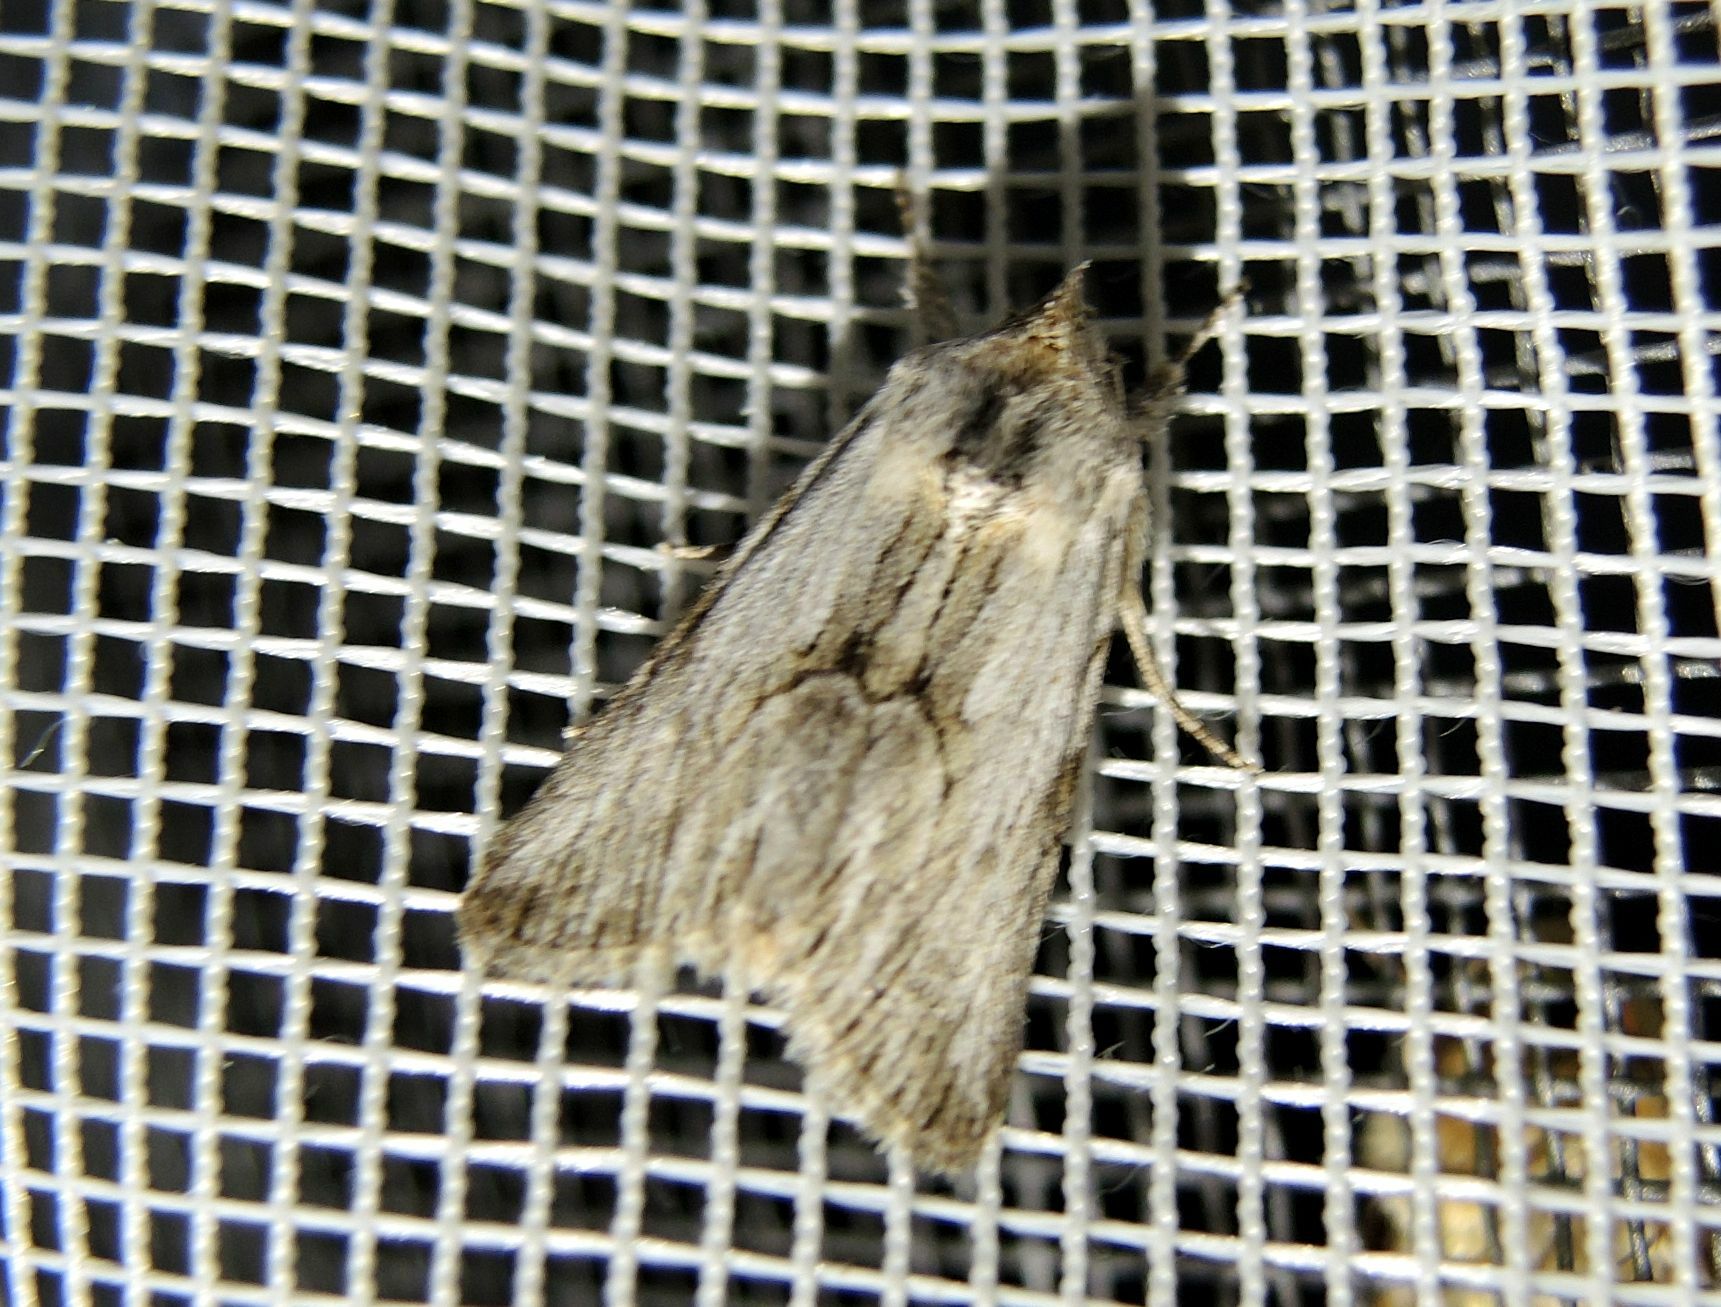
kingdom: Animalia
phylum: Arthropoda
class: Insecta
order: Lepidoptera
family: Noctuidae
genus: Calophasia
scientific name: Calophasia platyptera
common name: Antirrhinum brocade
